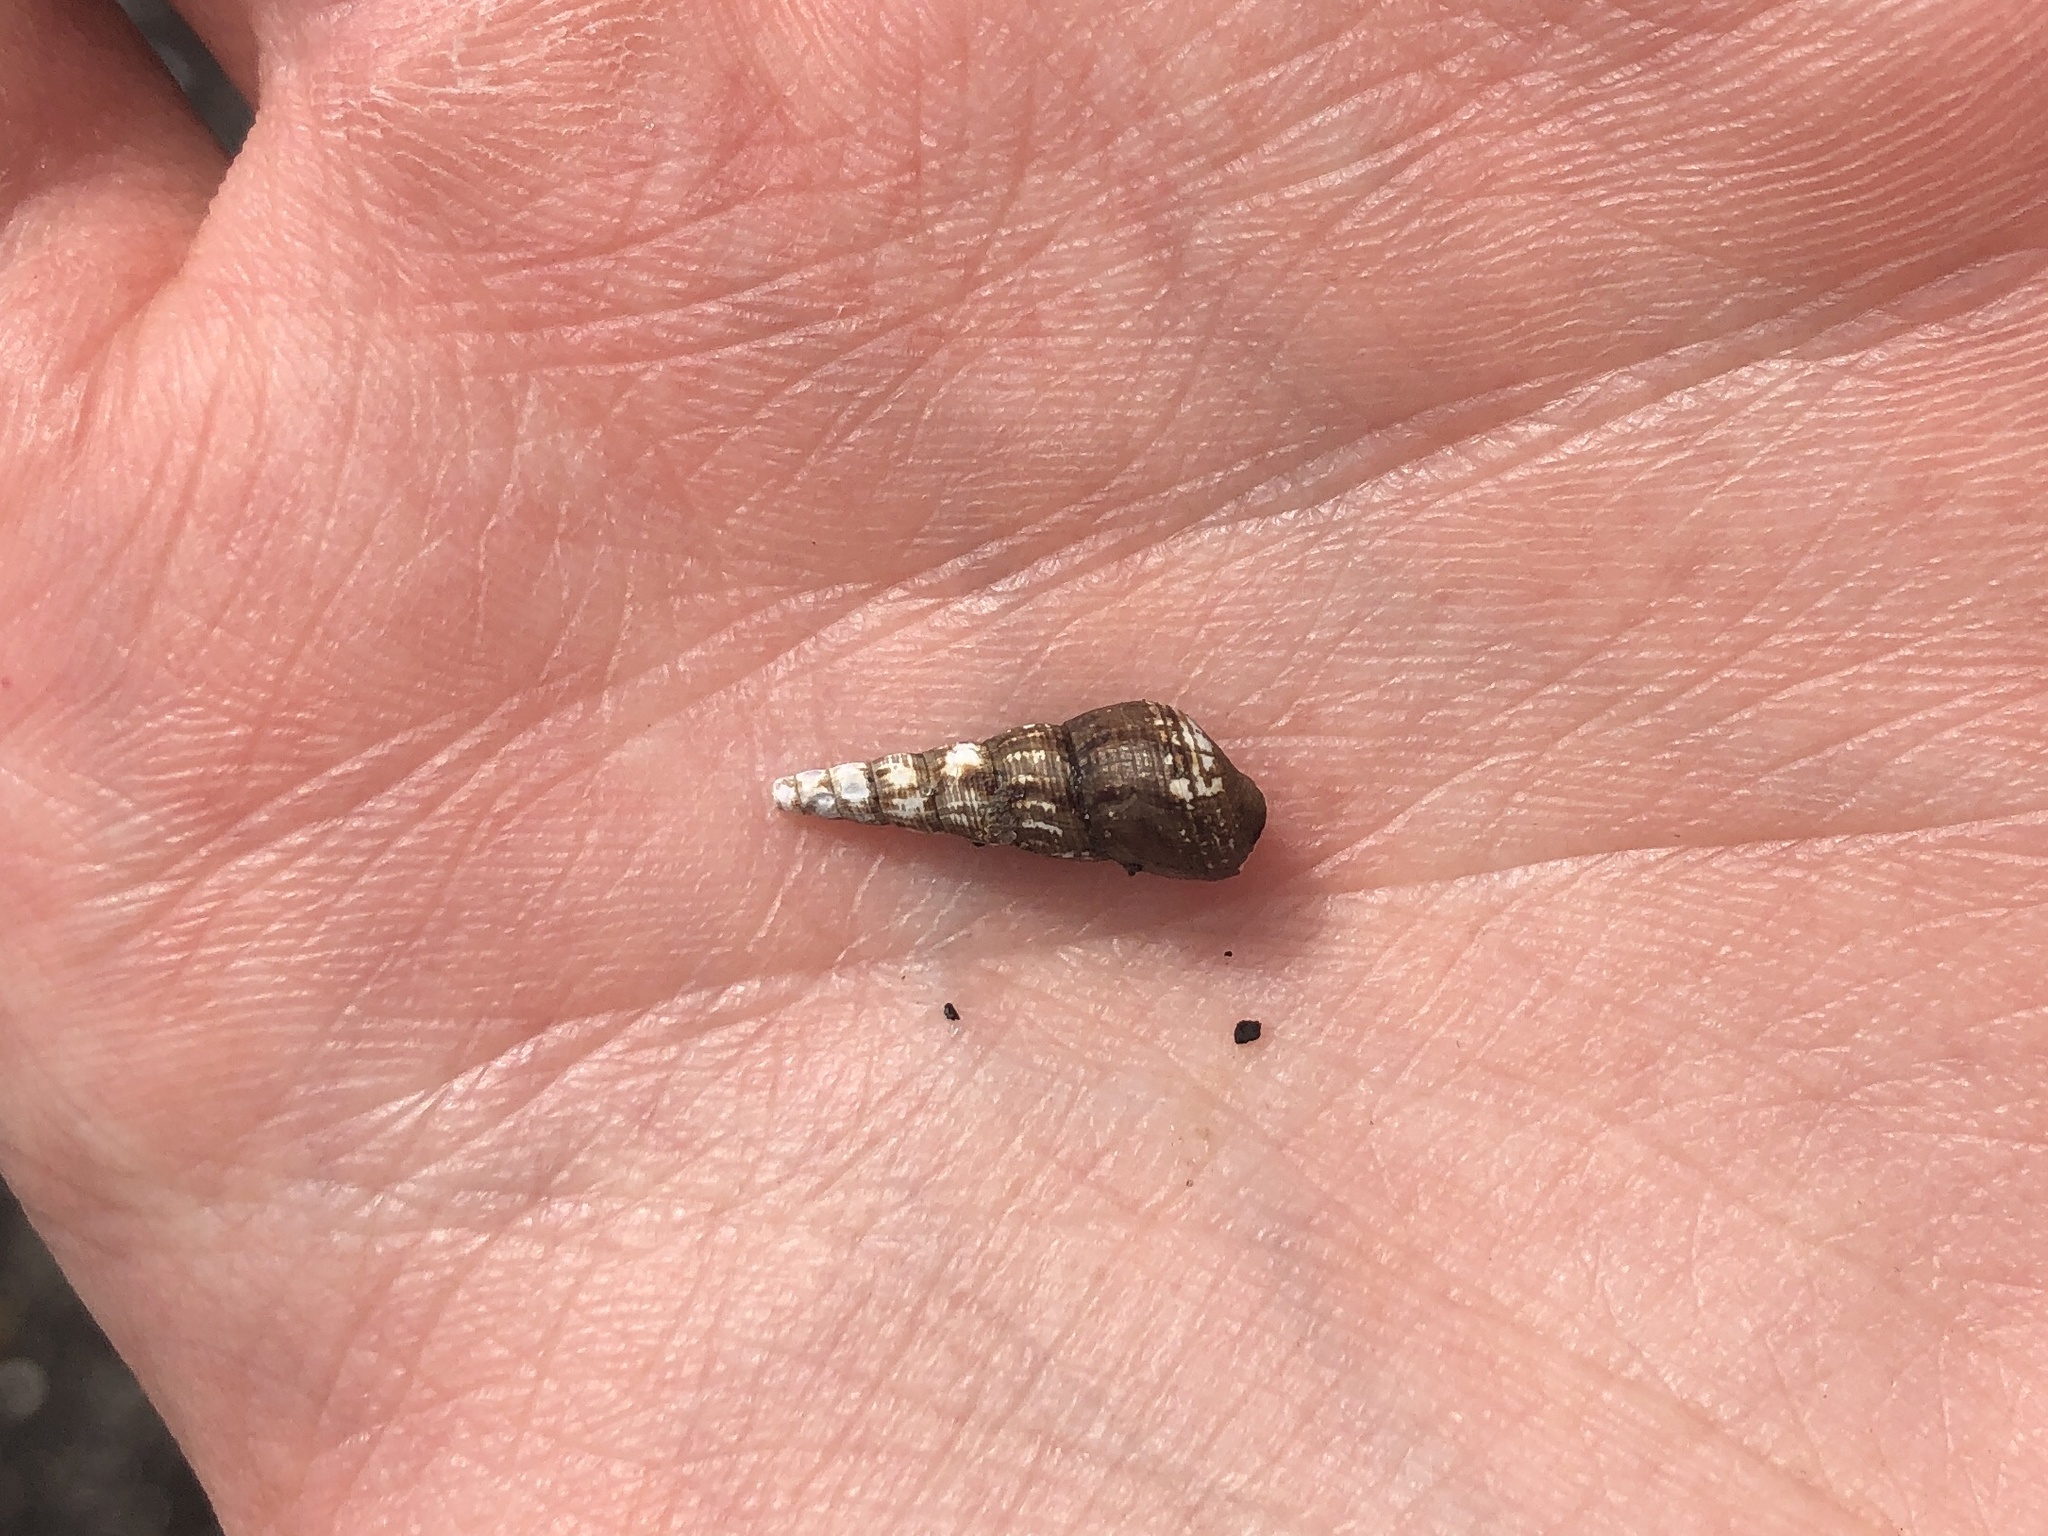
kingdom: Animalia
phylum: Mollusca
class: Gastropoda
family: Thiaridae
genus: Melanoides
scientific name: Melanoides tuberculata
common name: Red-rim melania
